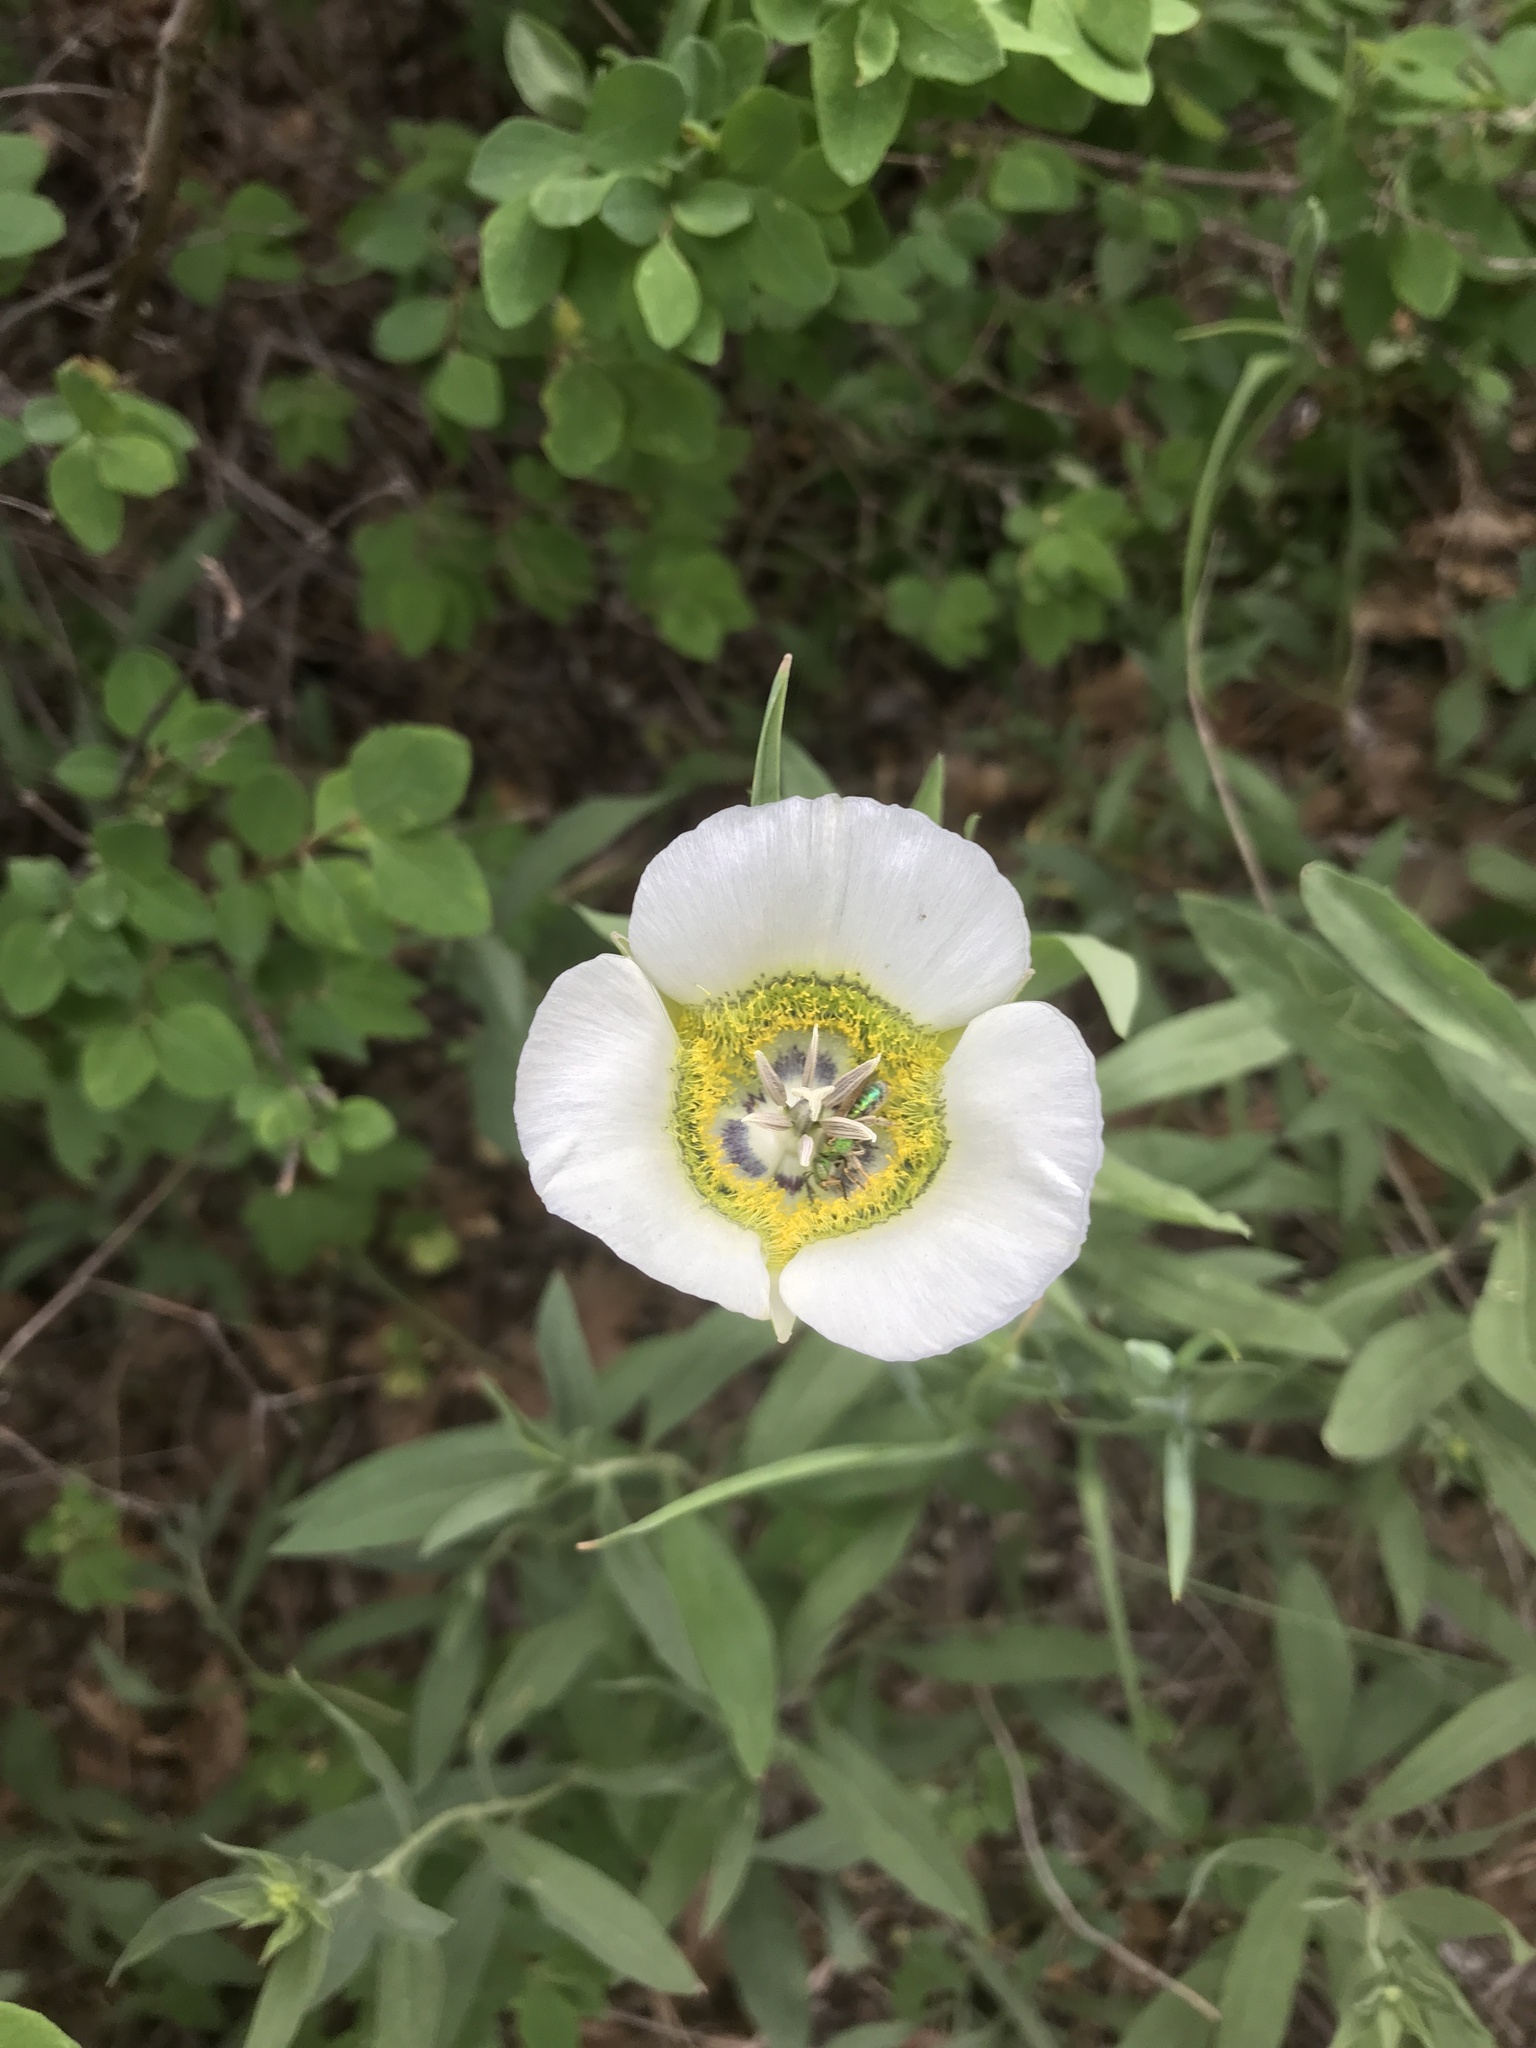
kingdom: Plantae
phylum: Tracheophyta
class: Liliopsida
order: Liliales
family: Liliaceae
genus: Calochortus
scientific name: Calochortus gunnisonii
